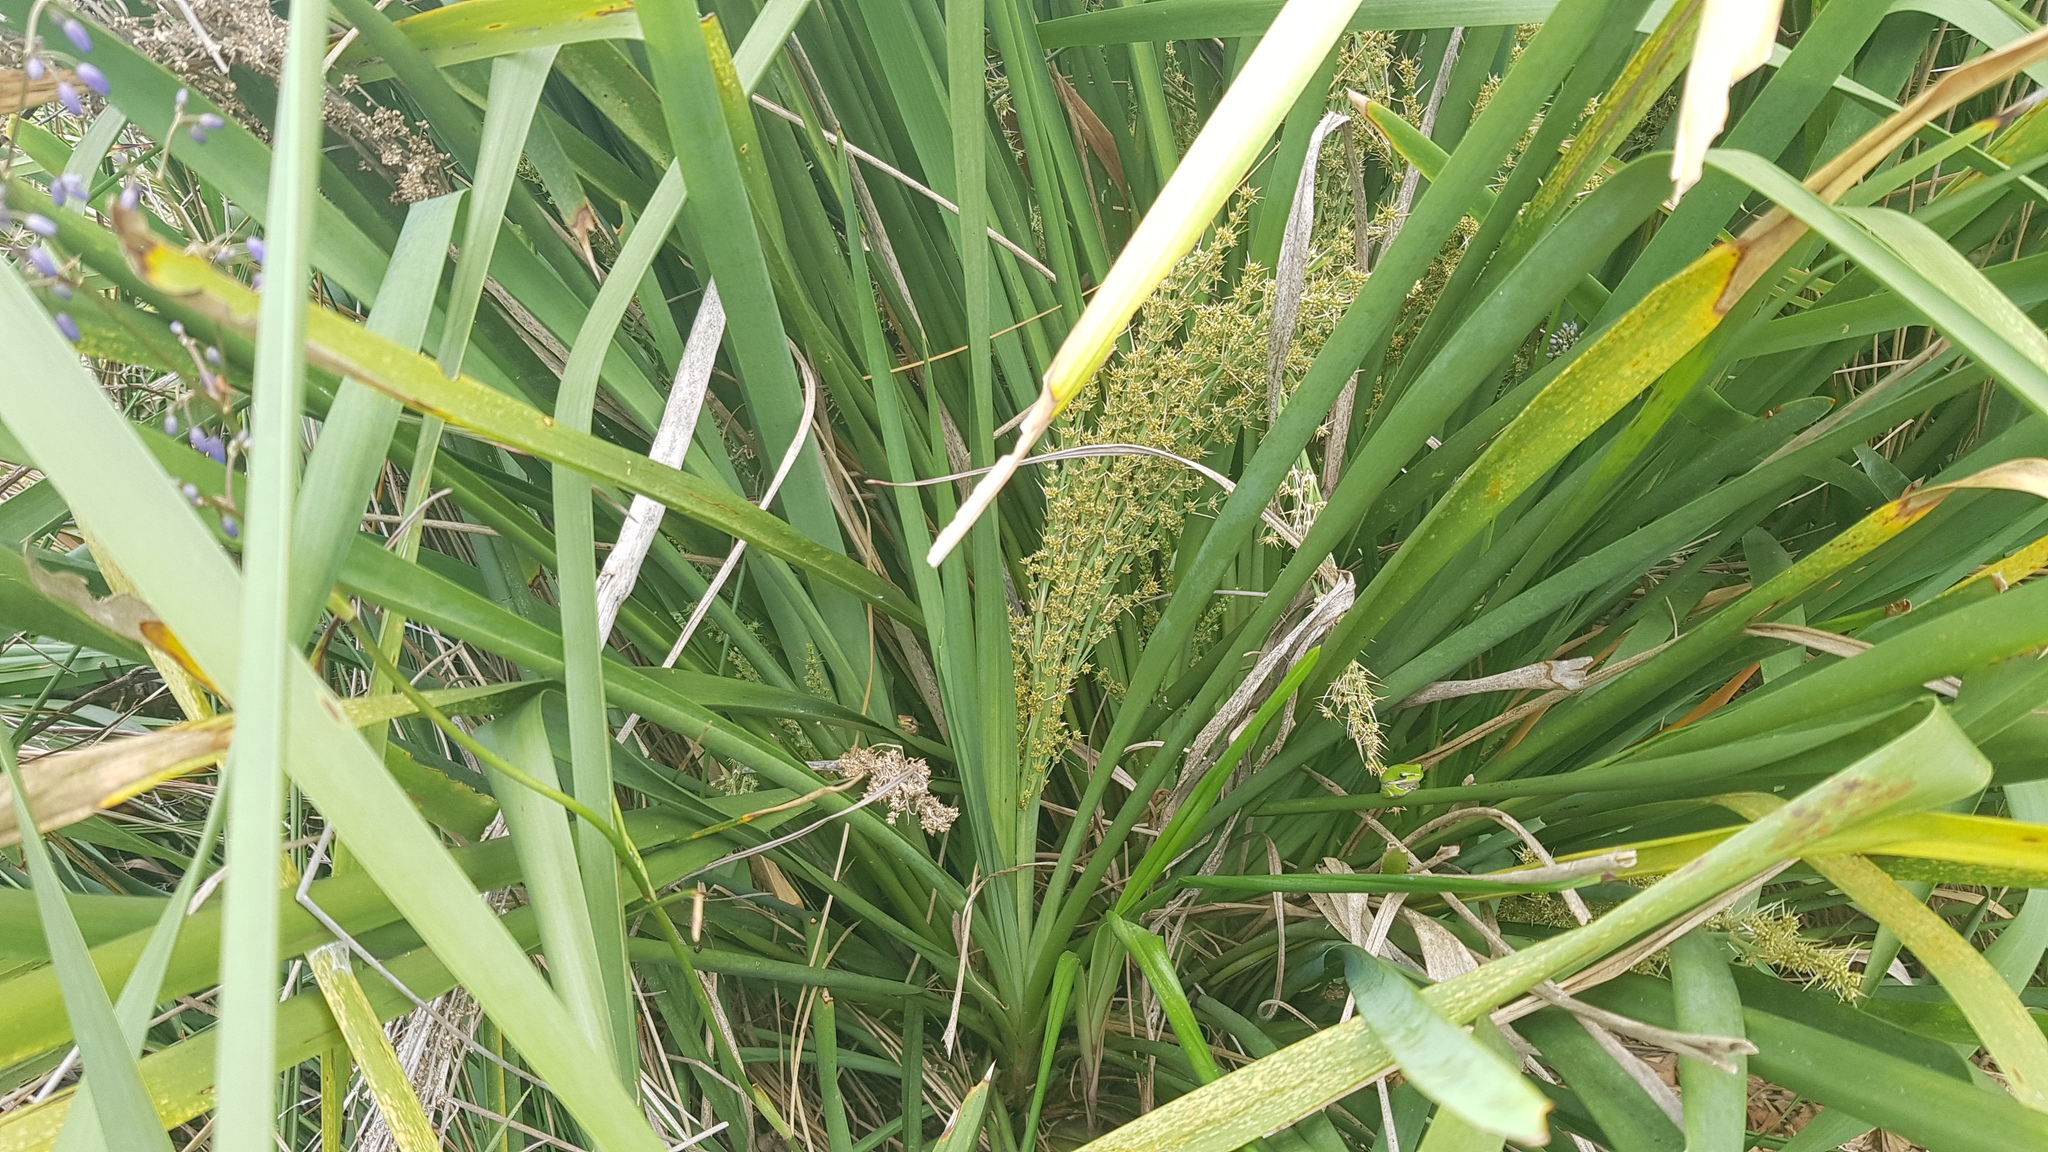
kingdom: Animalia
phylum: Chordata
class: Amphibia
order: Anura
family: Pelodryadidae
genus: Litoria
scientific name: Litoria fallax
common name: Eastern dwarf treefrog
